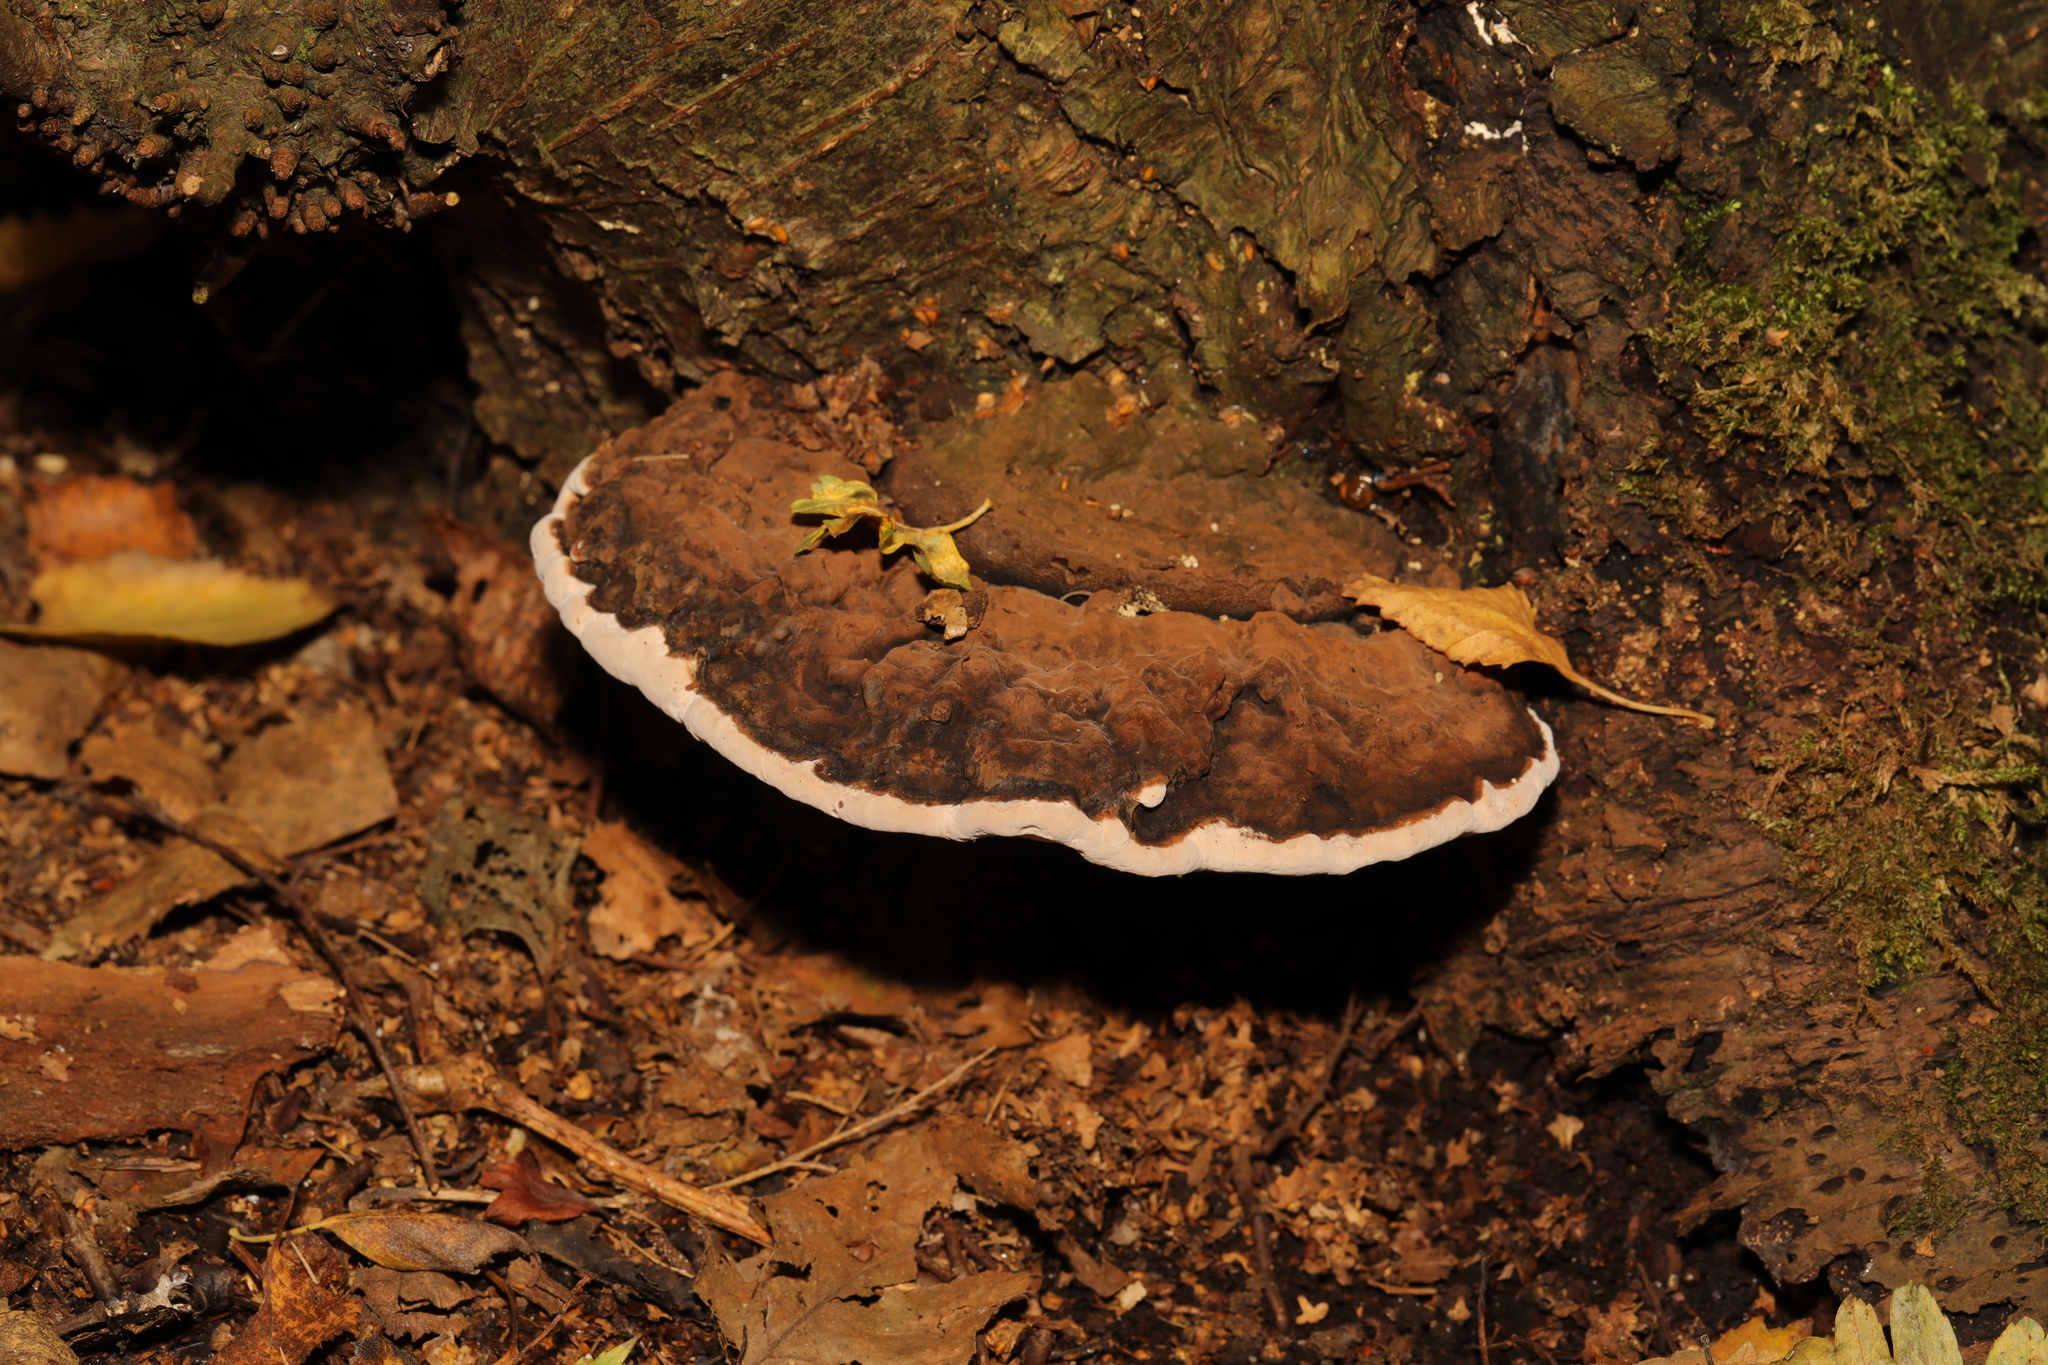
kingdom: Fungi
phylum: Basidiomycota
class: Agaricomycetes
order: Polyporales
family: Polyporaceae
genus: Ganoderma
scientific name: Ganoderma applanatum
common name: Artist's bracket
